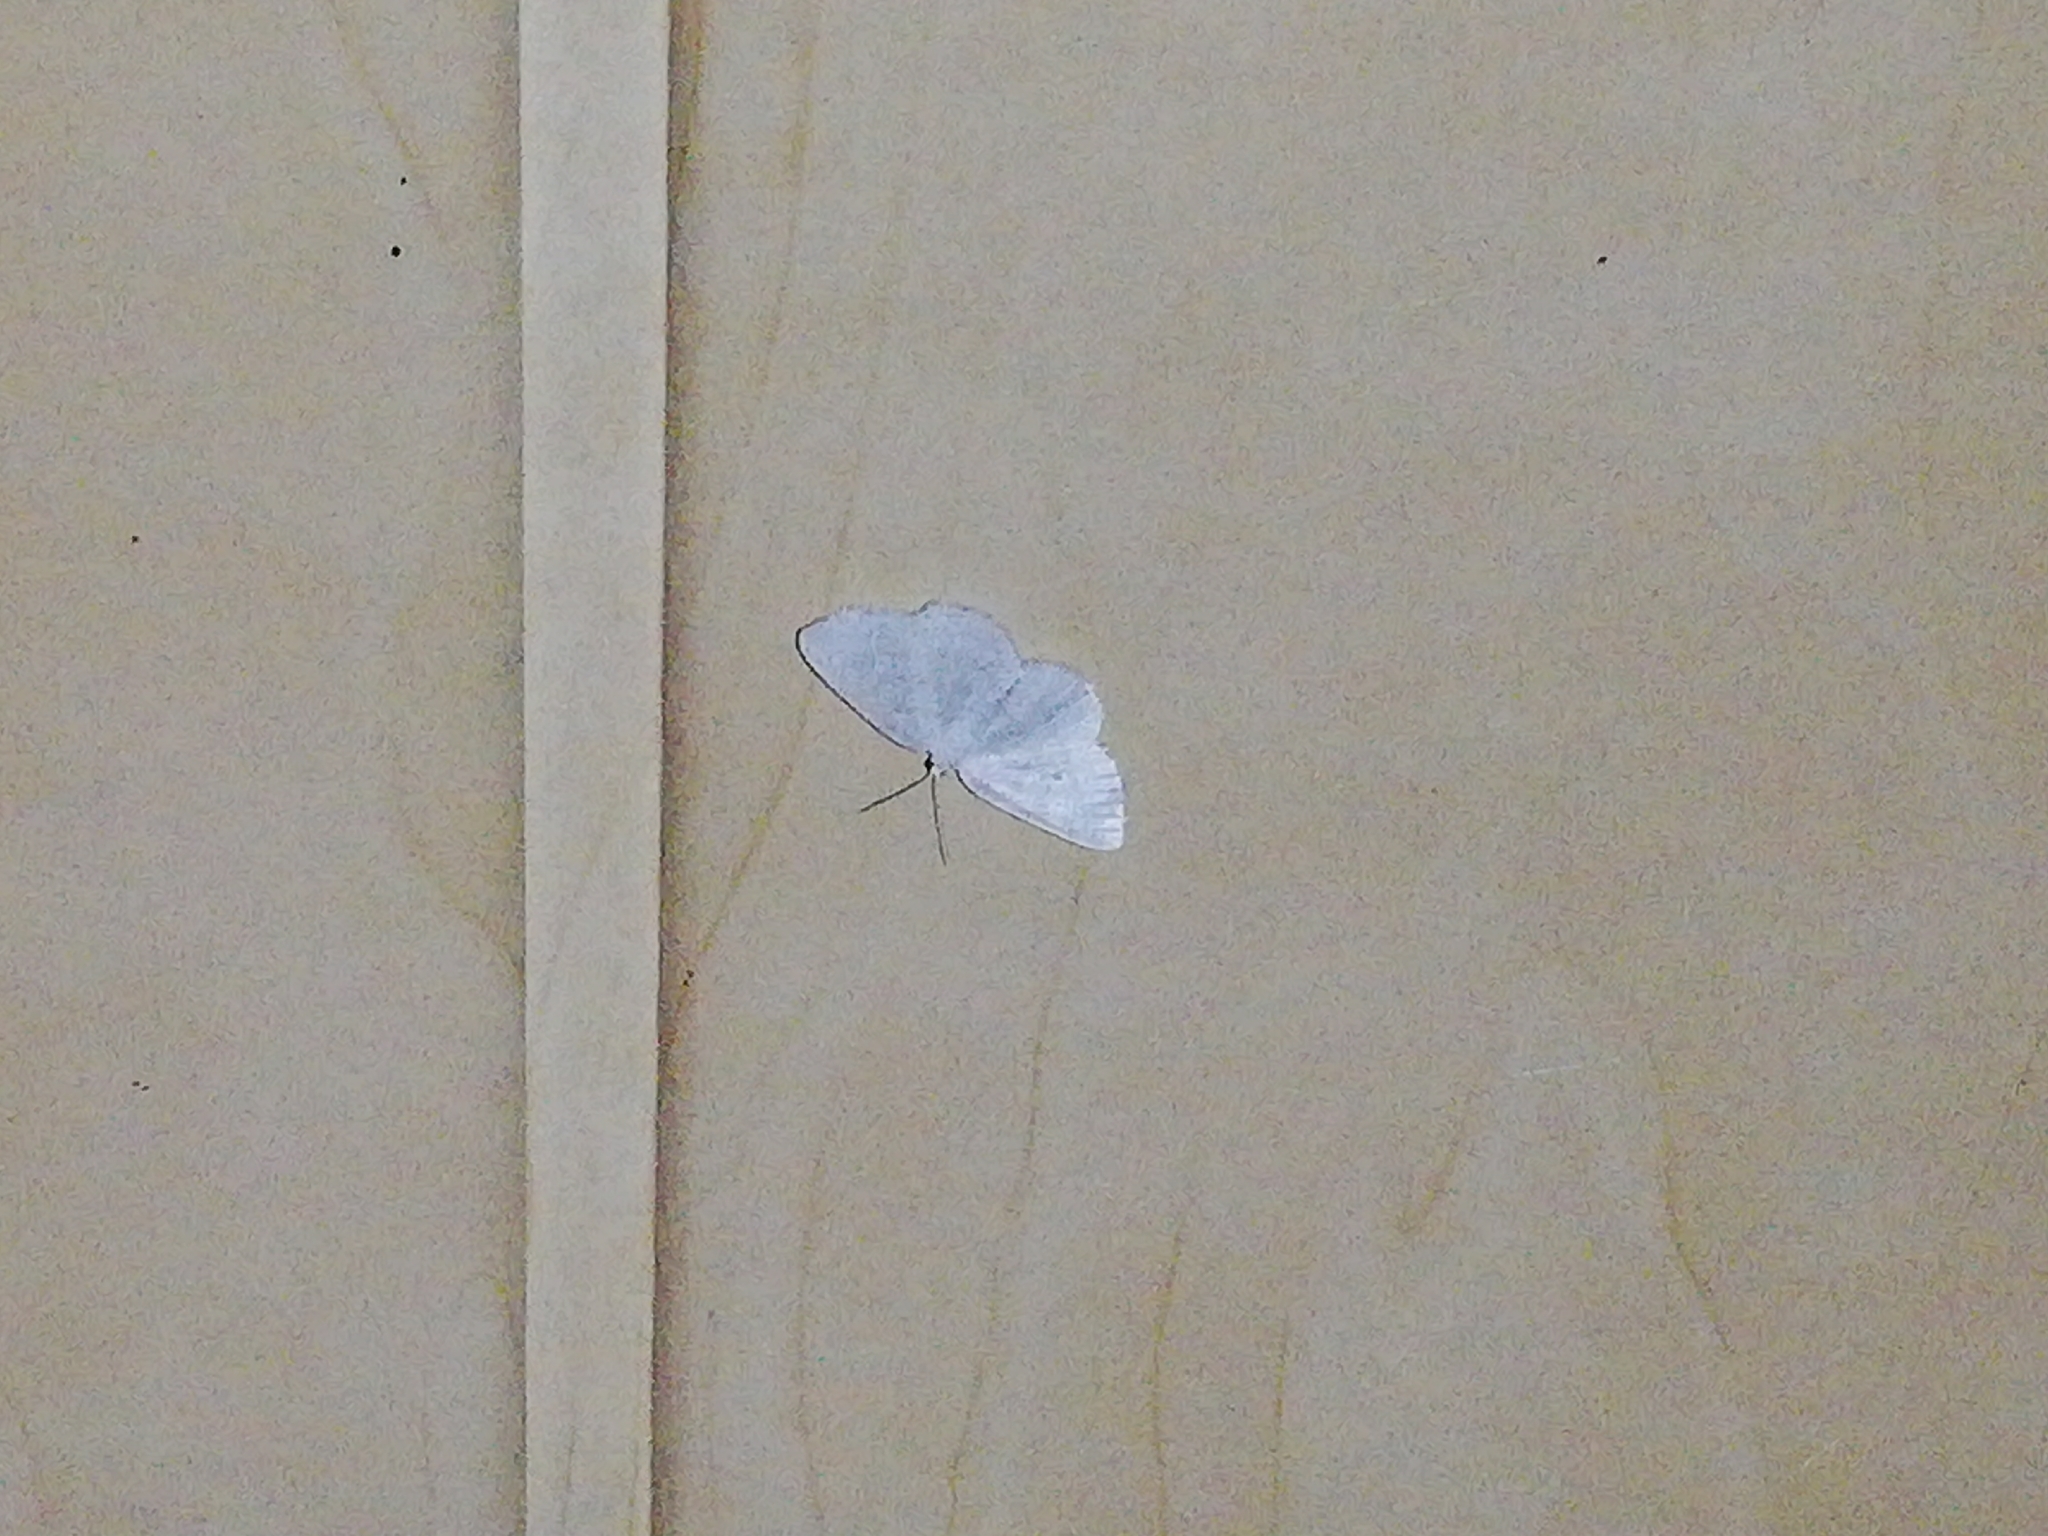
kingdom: Animalia
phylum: Arthropoda
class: Insecta
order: Lepidoptera
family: Geometridae
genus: Cabera
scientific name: Cabera pusaria
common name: Common white wave
